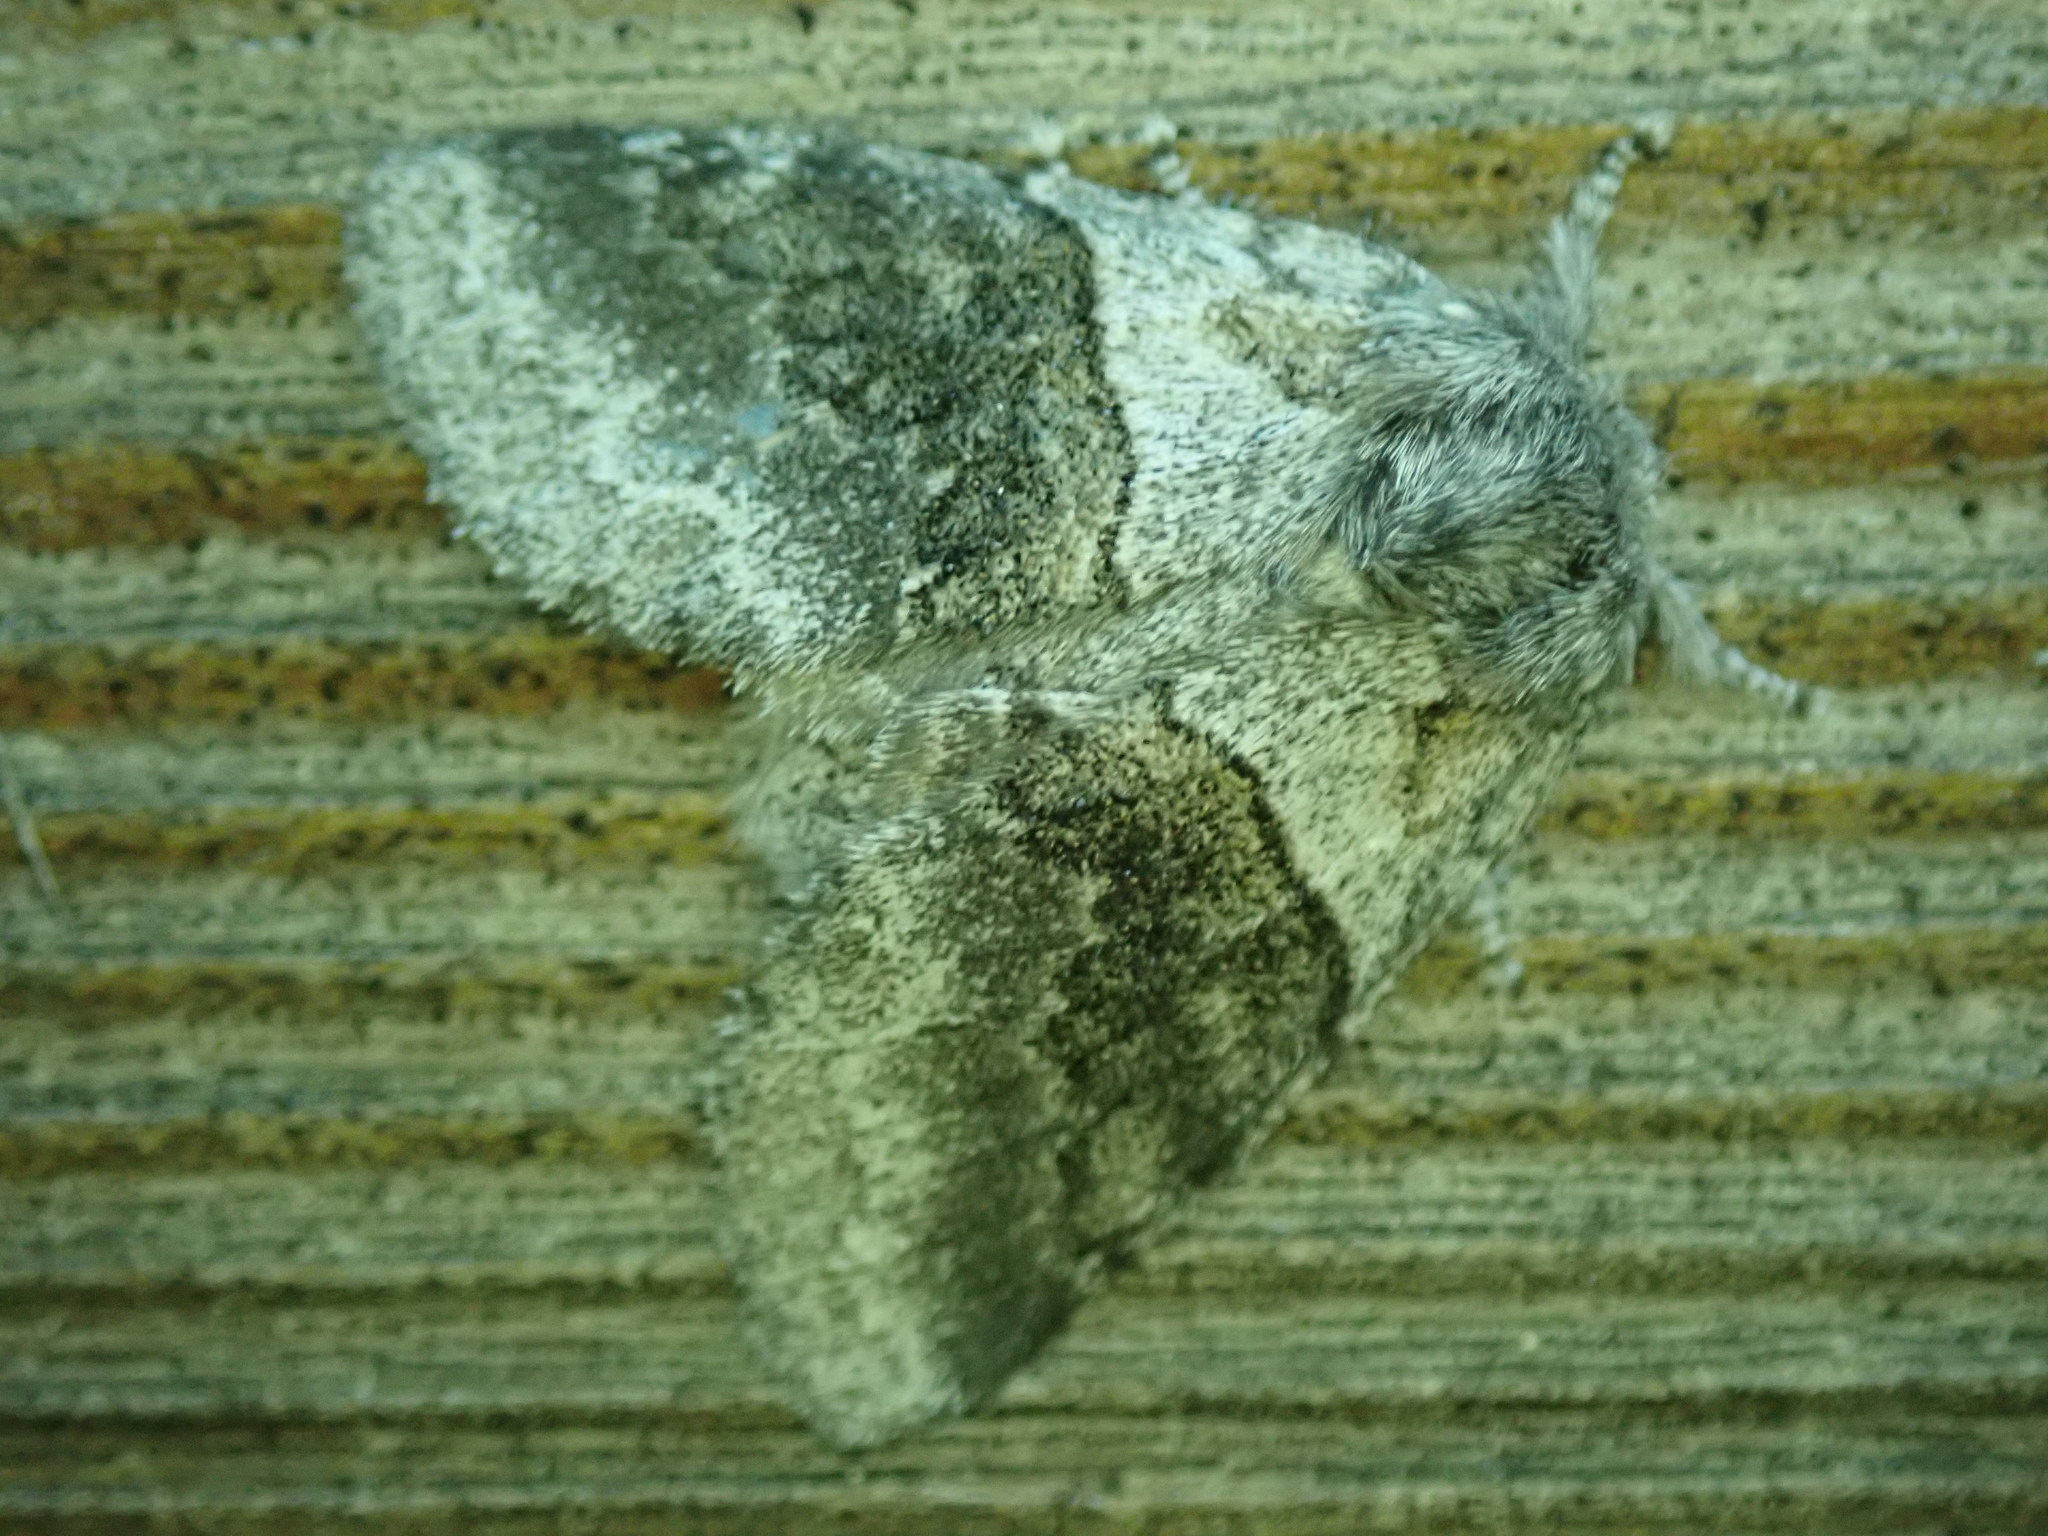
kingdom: Animalia
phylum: Arthropoda
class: Insecta
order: Lepidoptera
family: Notodontidae
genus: Gluphisia
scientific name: Gluphisia septentrionis
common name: Common gluphisia
